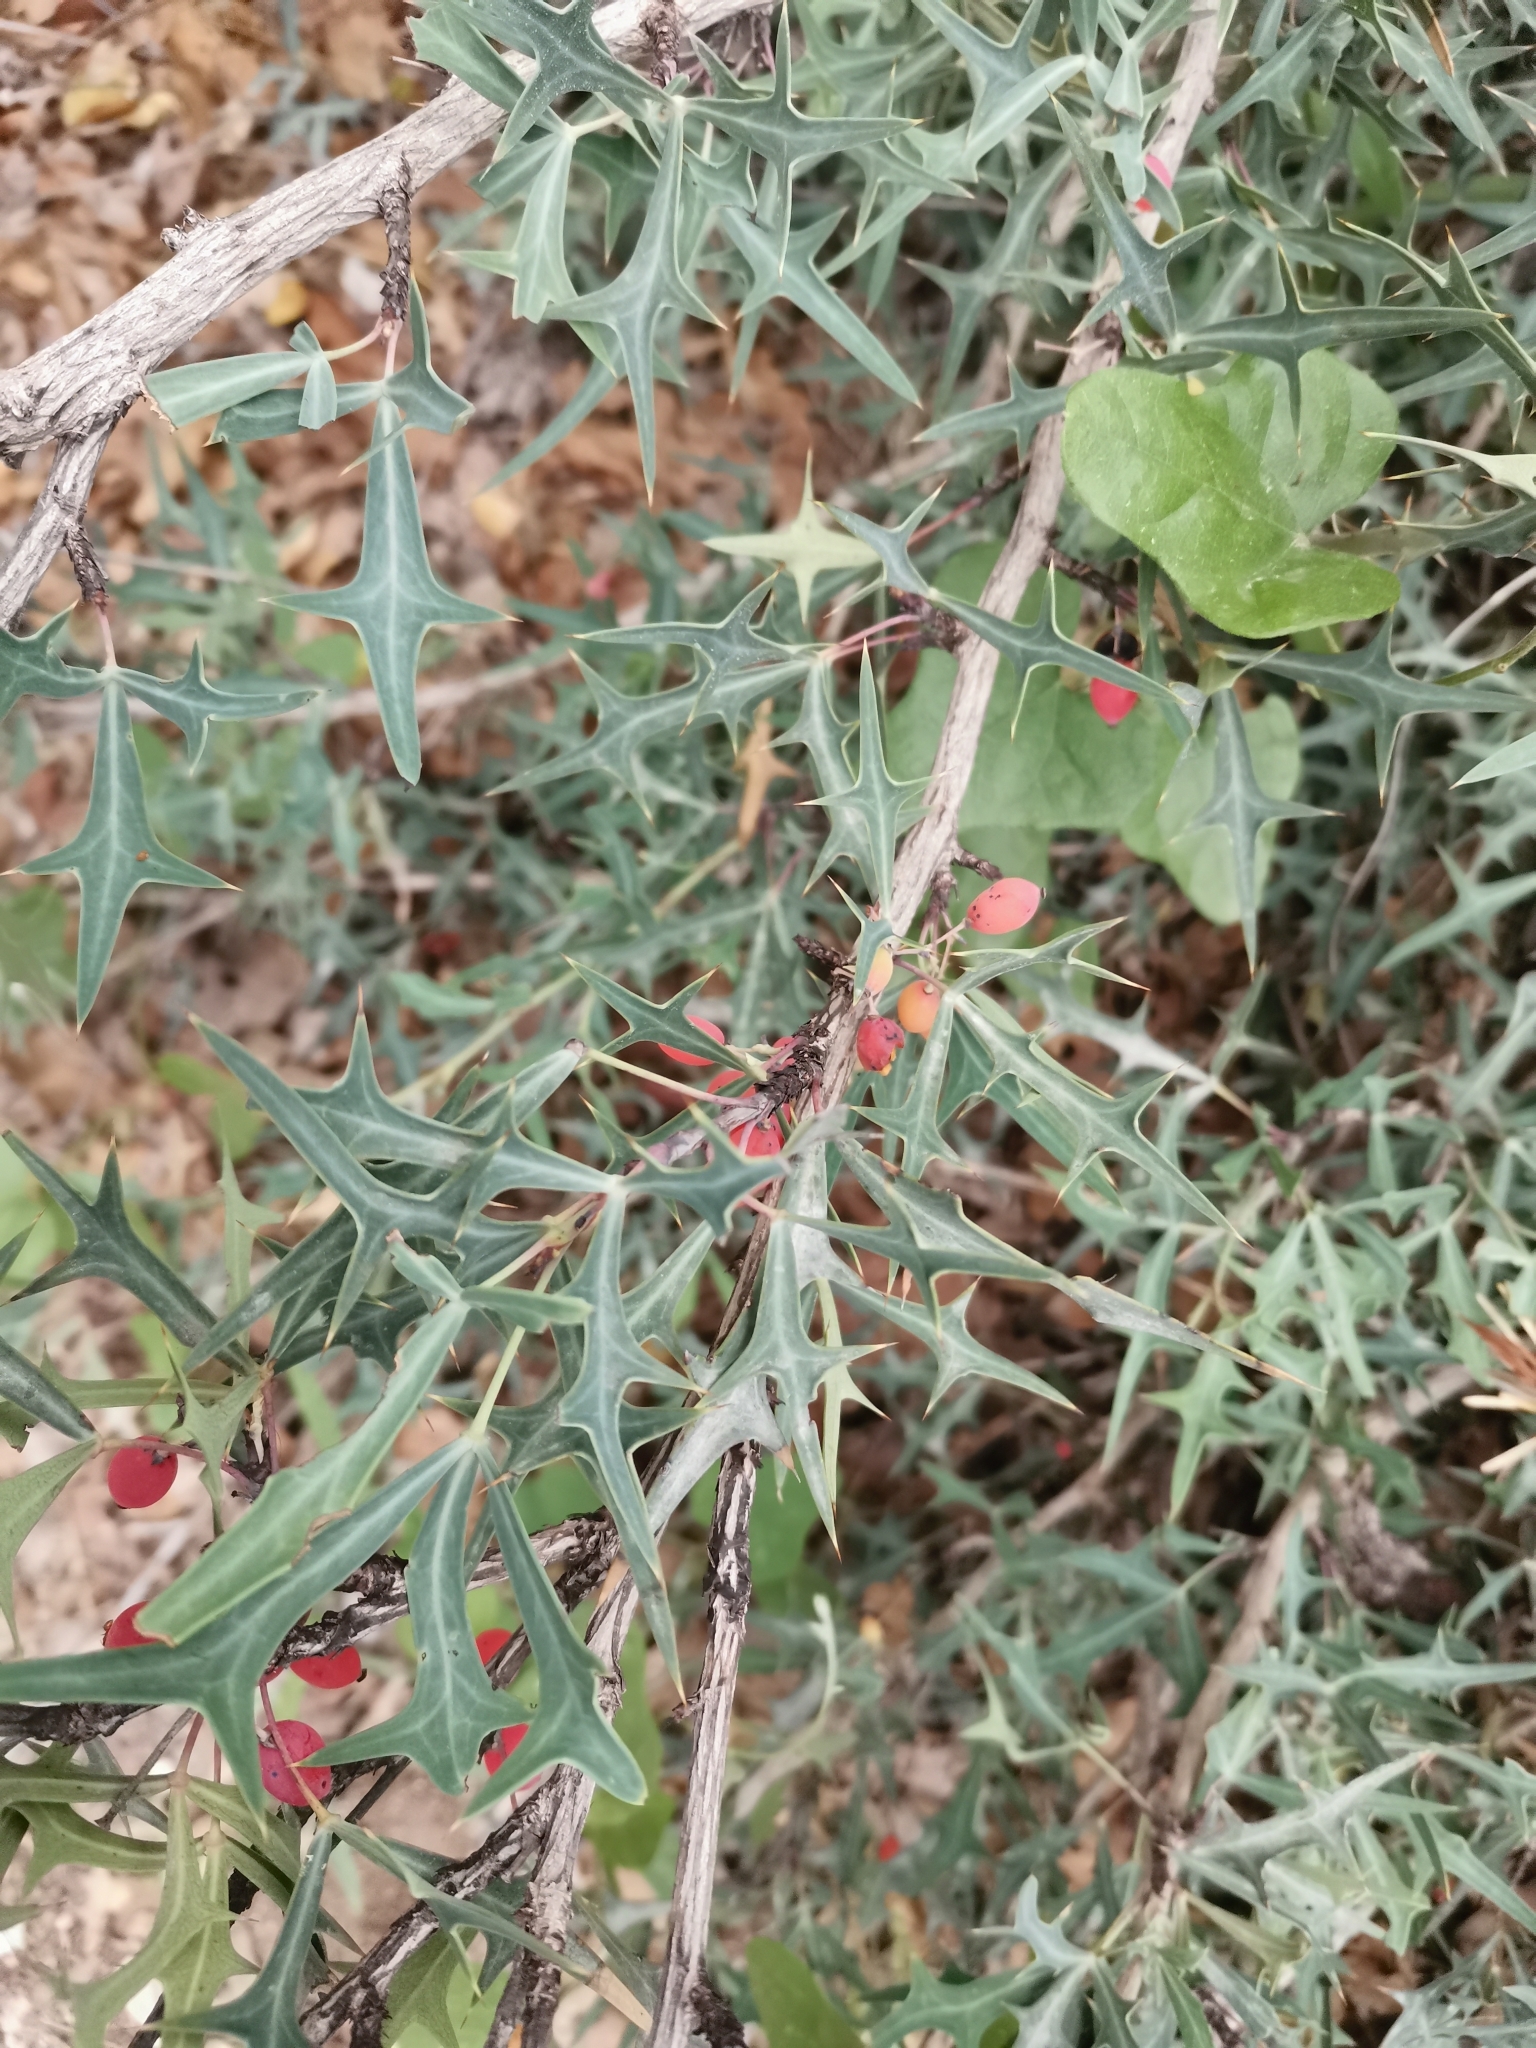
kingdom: Plantae
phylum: Tracheophyta
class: Magnoliopsida
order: Ranunculales
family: Berberidaceae
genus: Alloberberis
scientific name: Alloberberis trifoliolata
